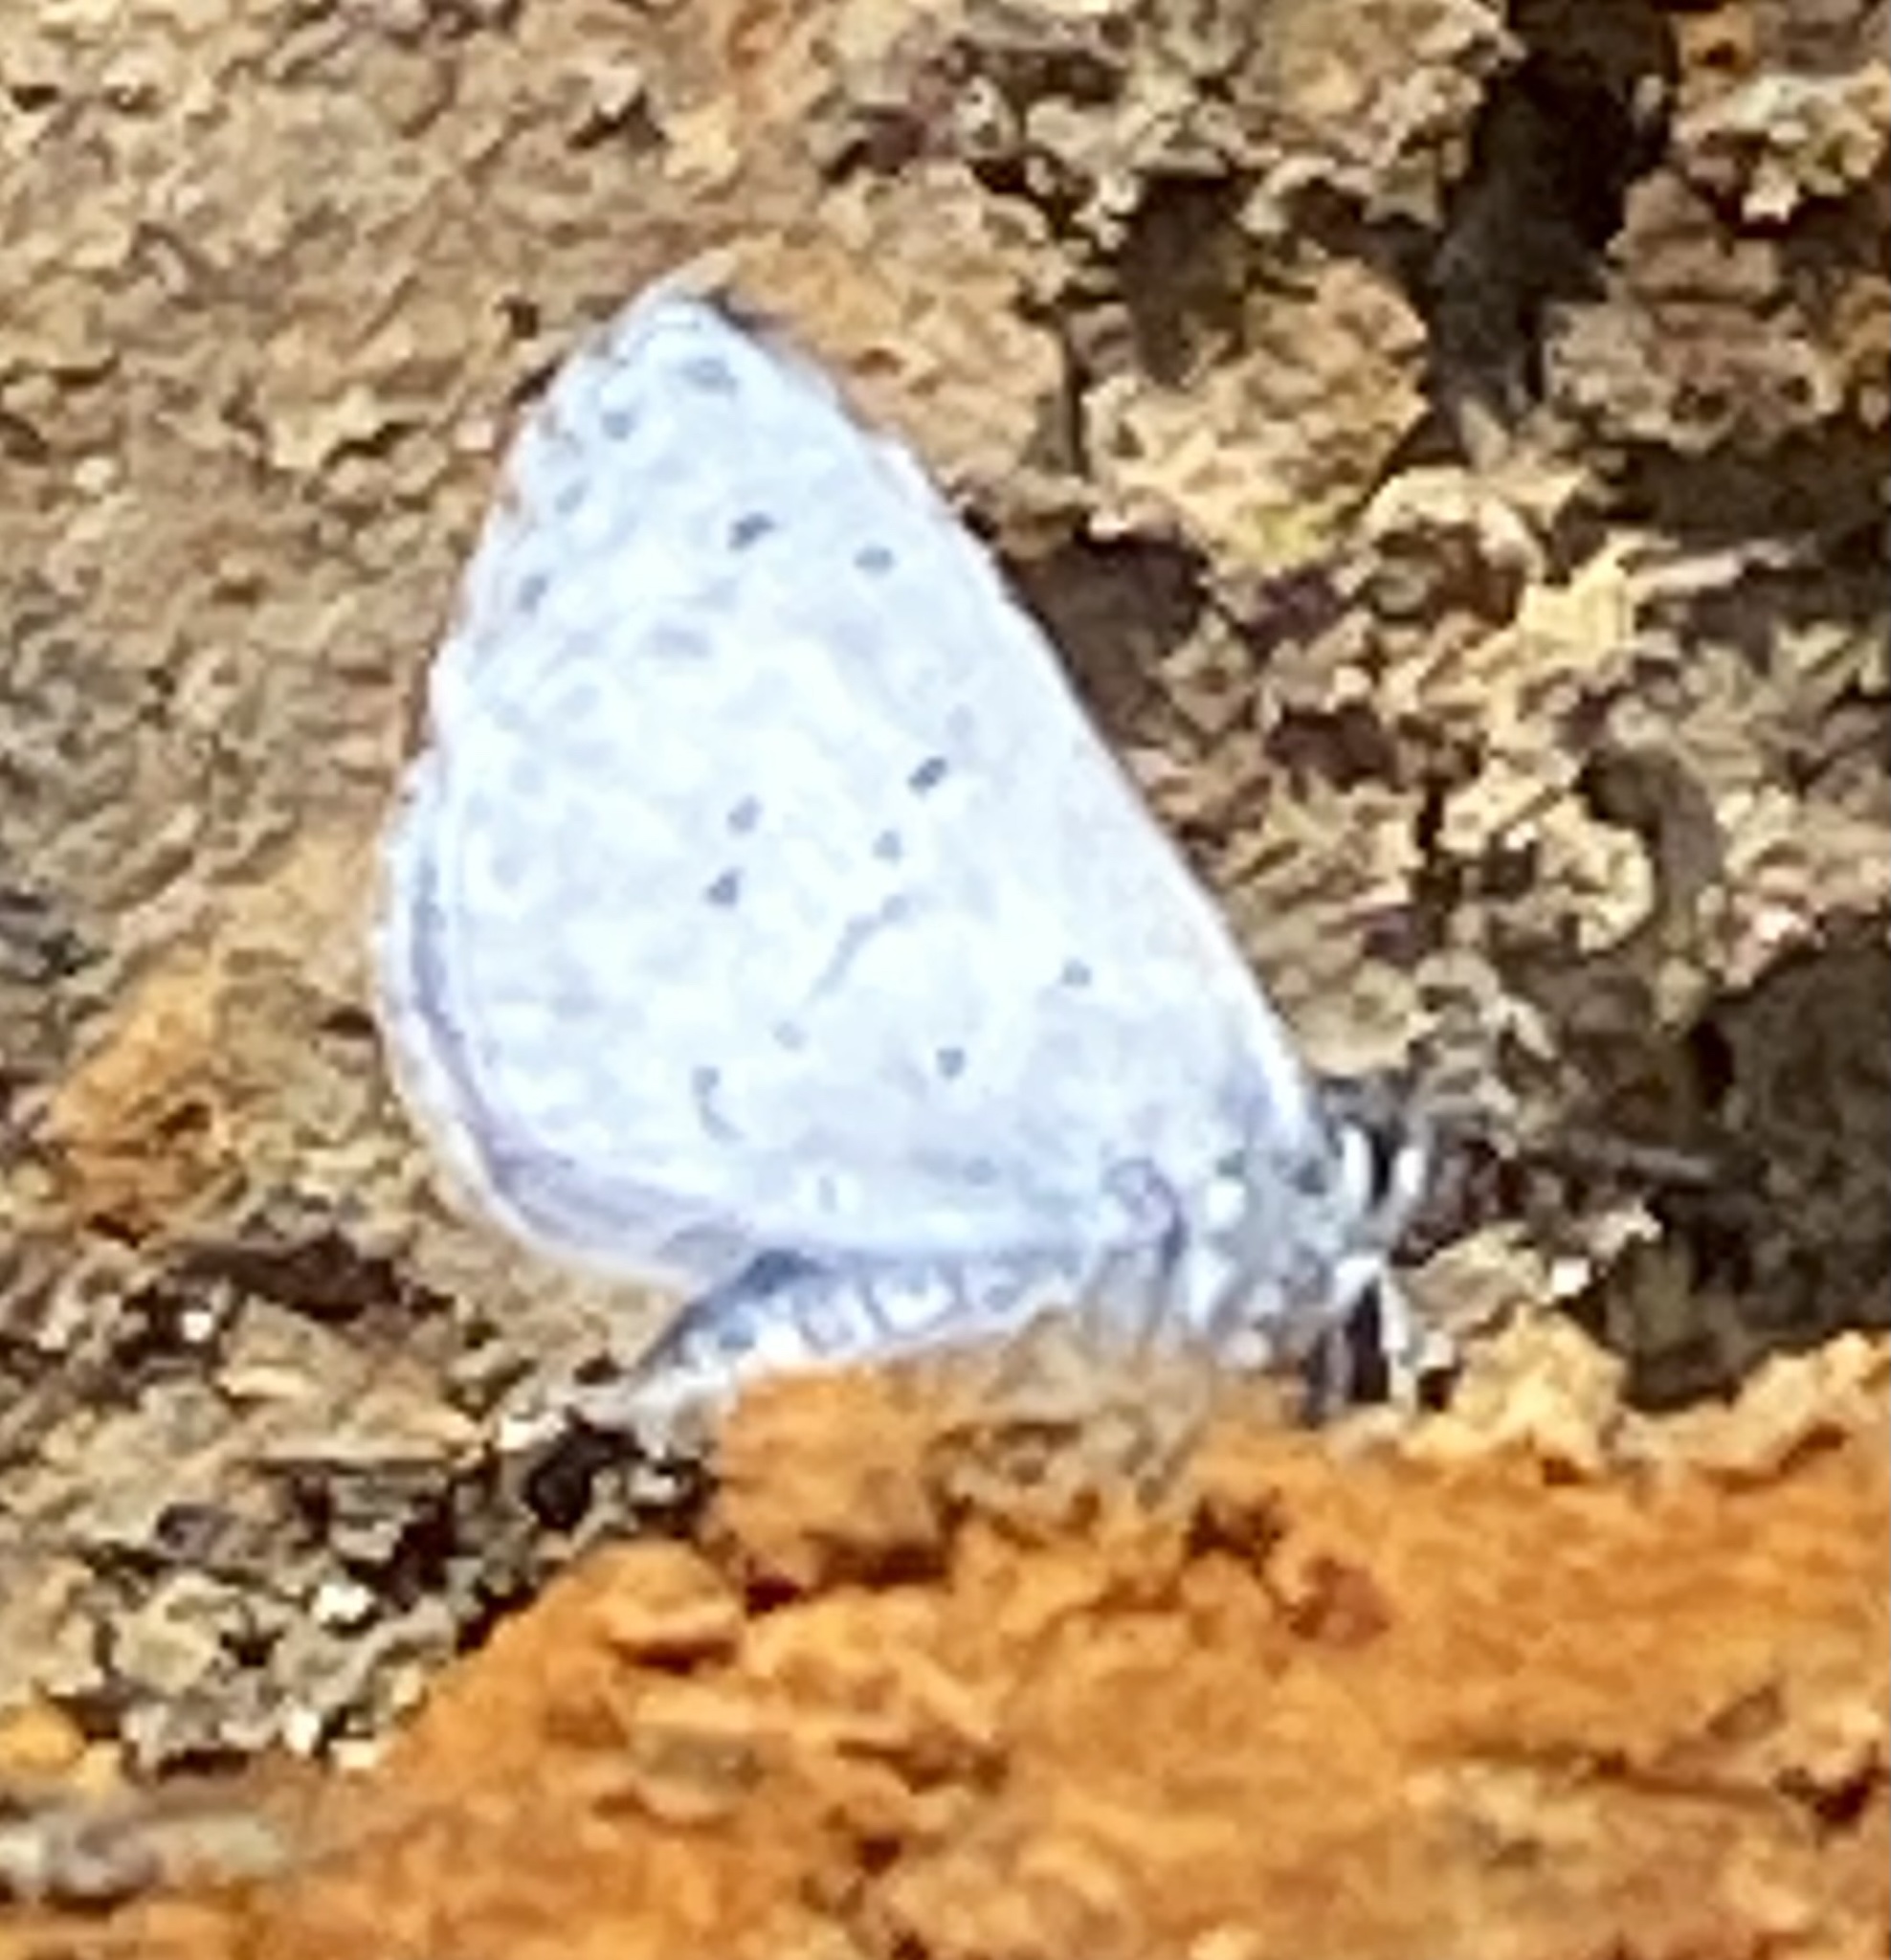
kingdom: Animalia
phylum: Arthropoda
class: Insecta
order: Lepidoptera
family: Lycaenidae
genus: Celastrina
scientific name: Celastrina ladon
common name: Spring azure
